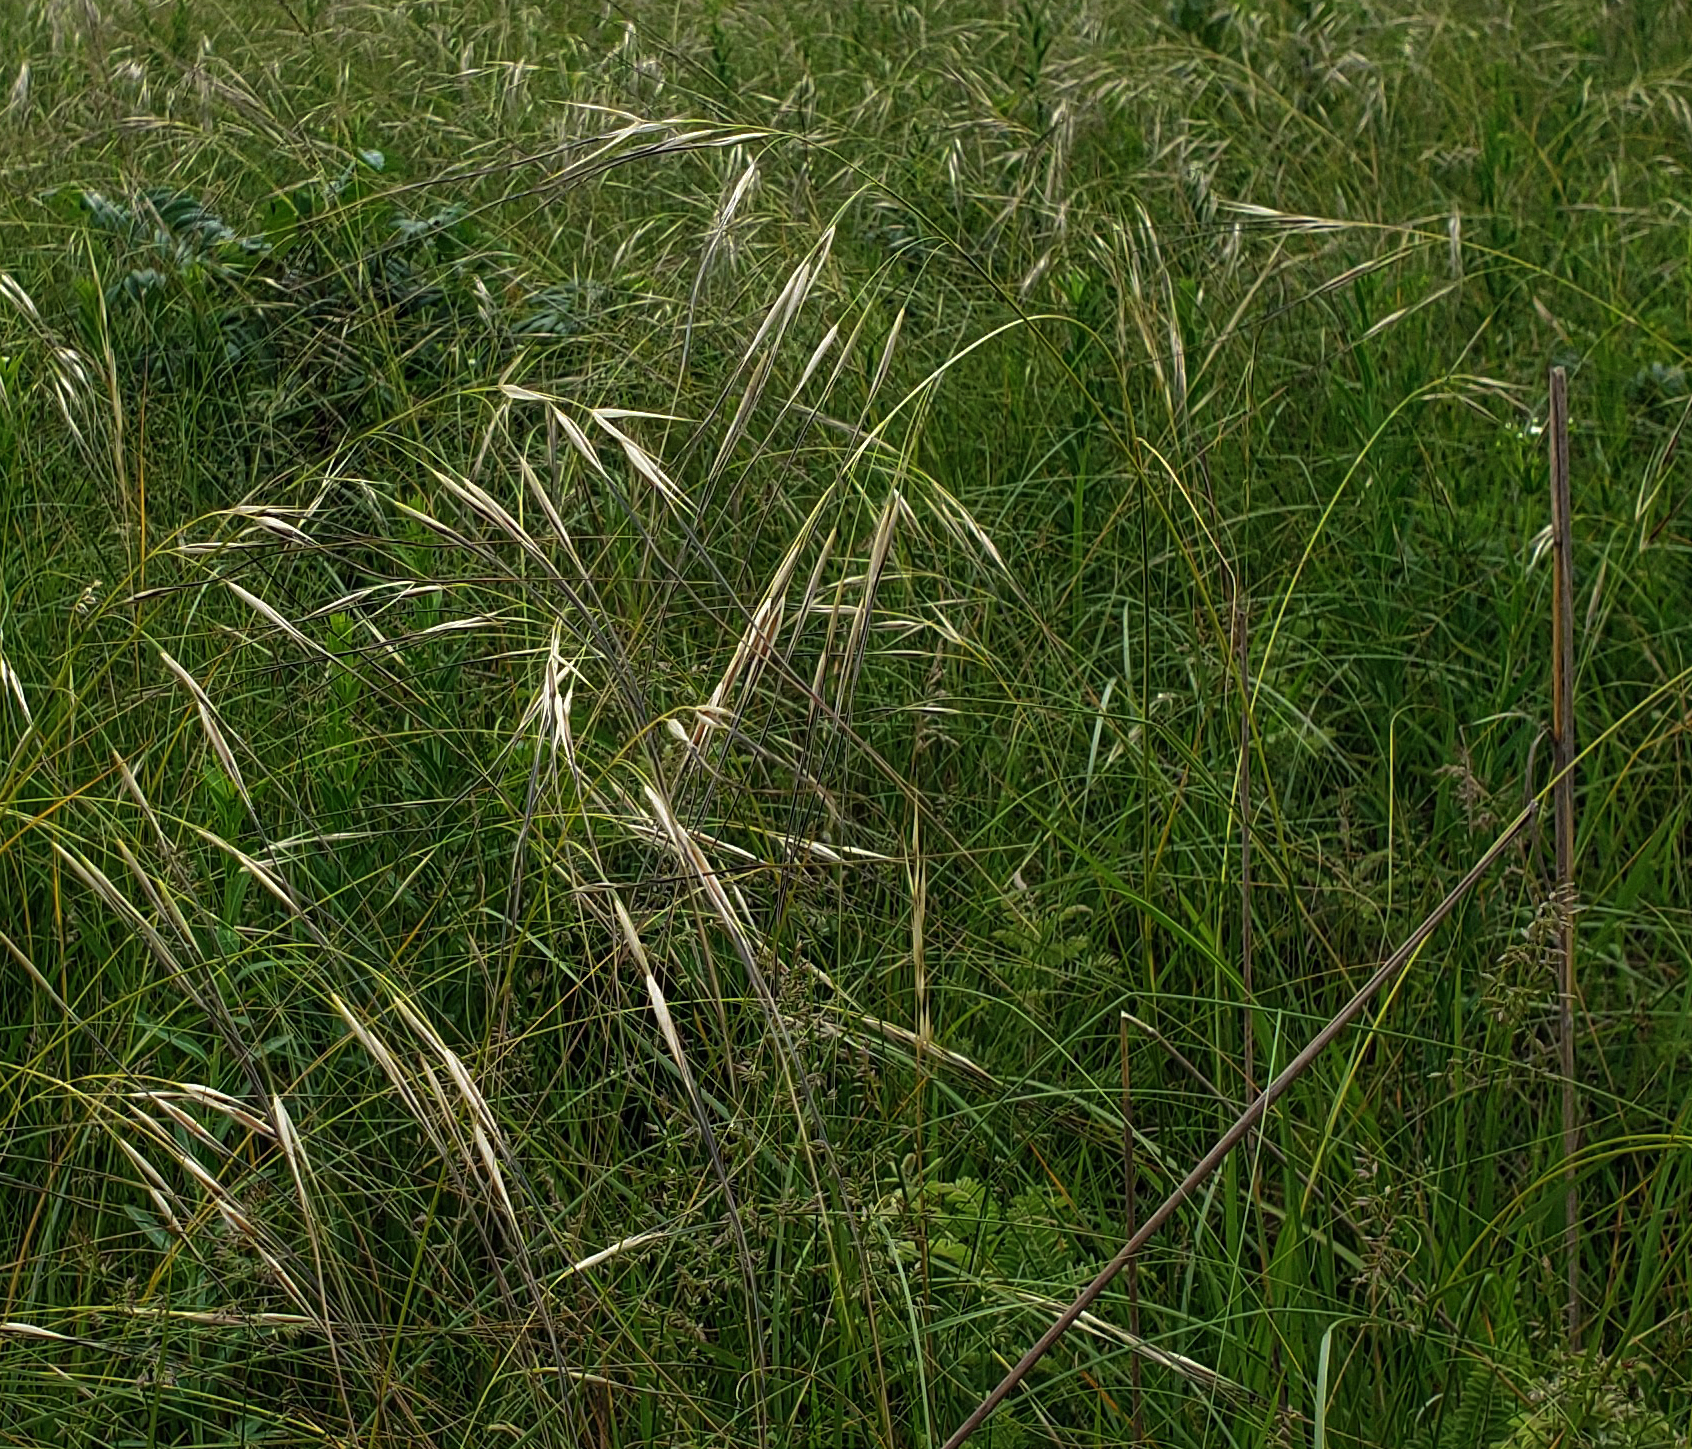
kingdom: Plantae
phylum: Tracheophyta
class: Liliopsida
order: Poales
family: Poaceae
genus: Hesperostipa
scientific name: Hesperostipa spartea
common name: Porcupine grass
